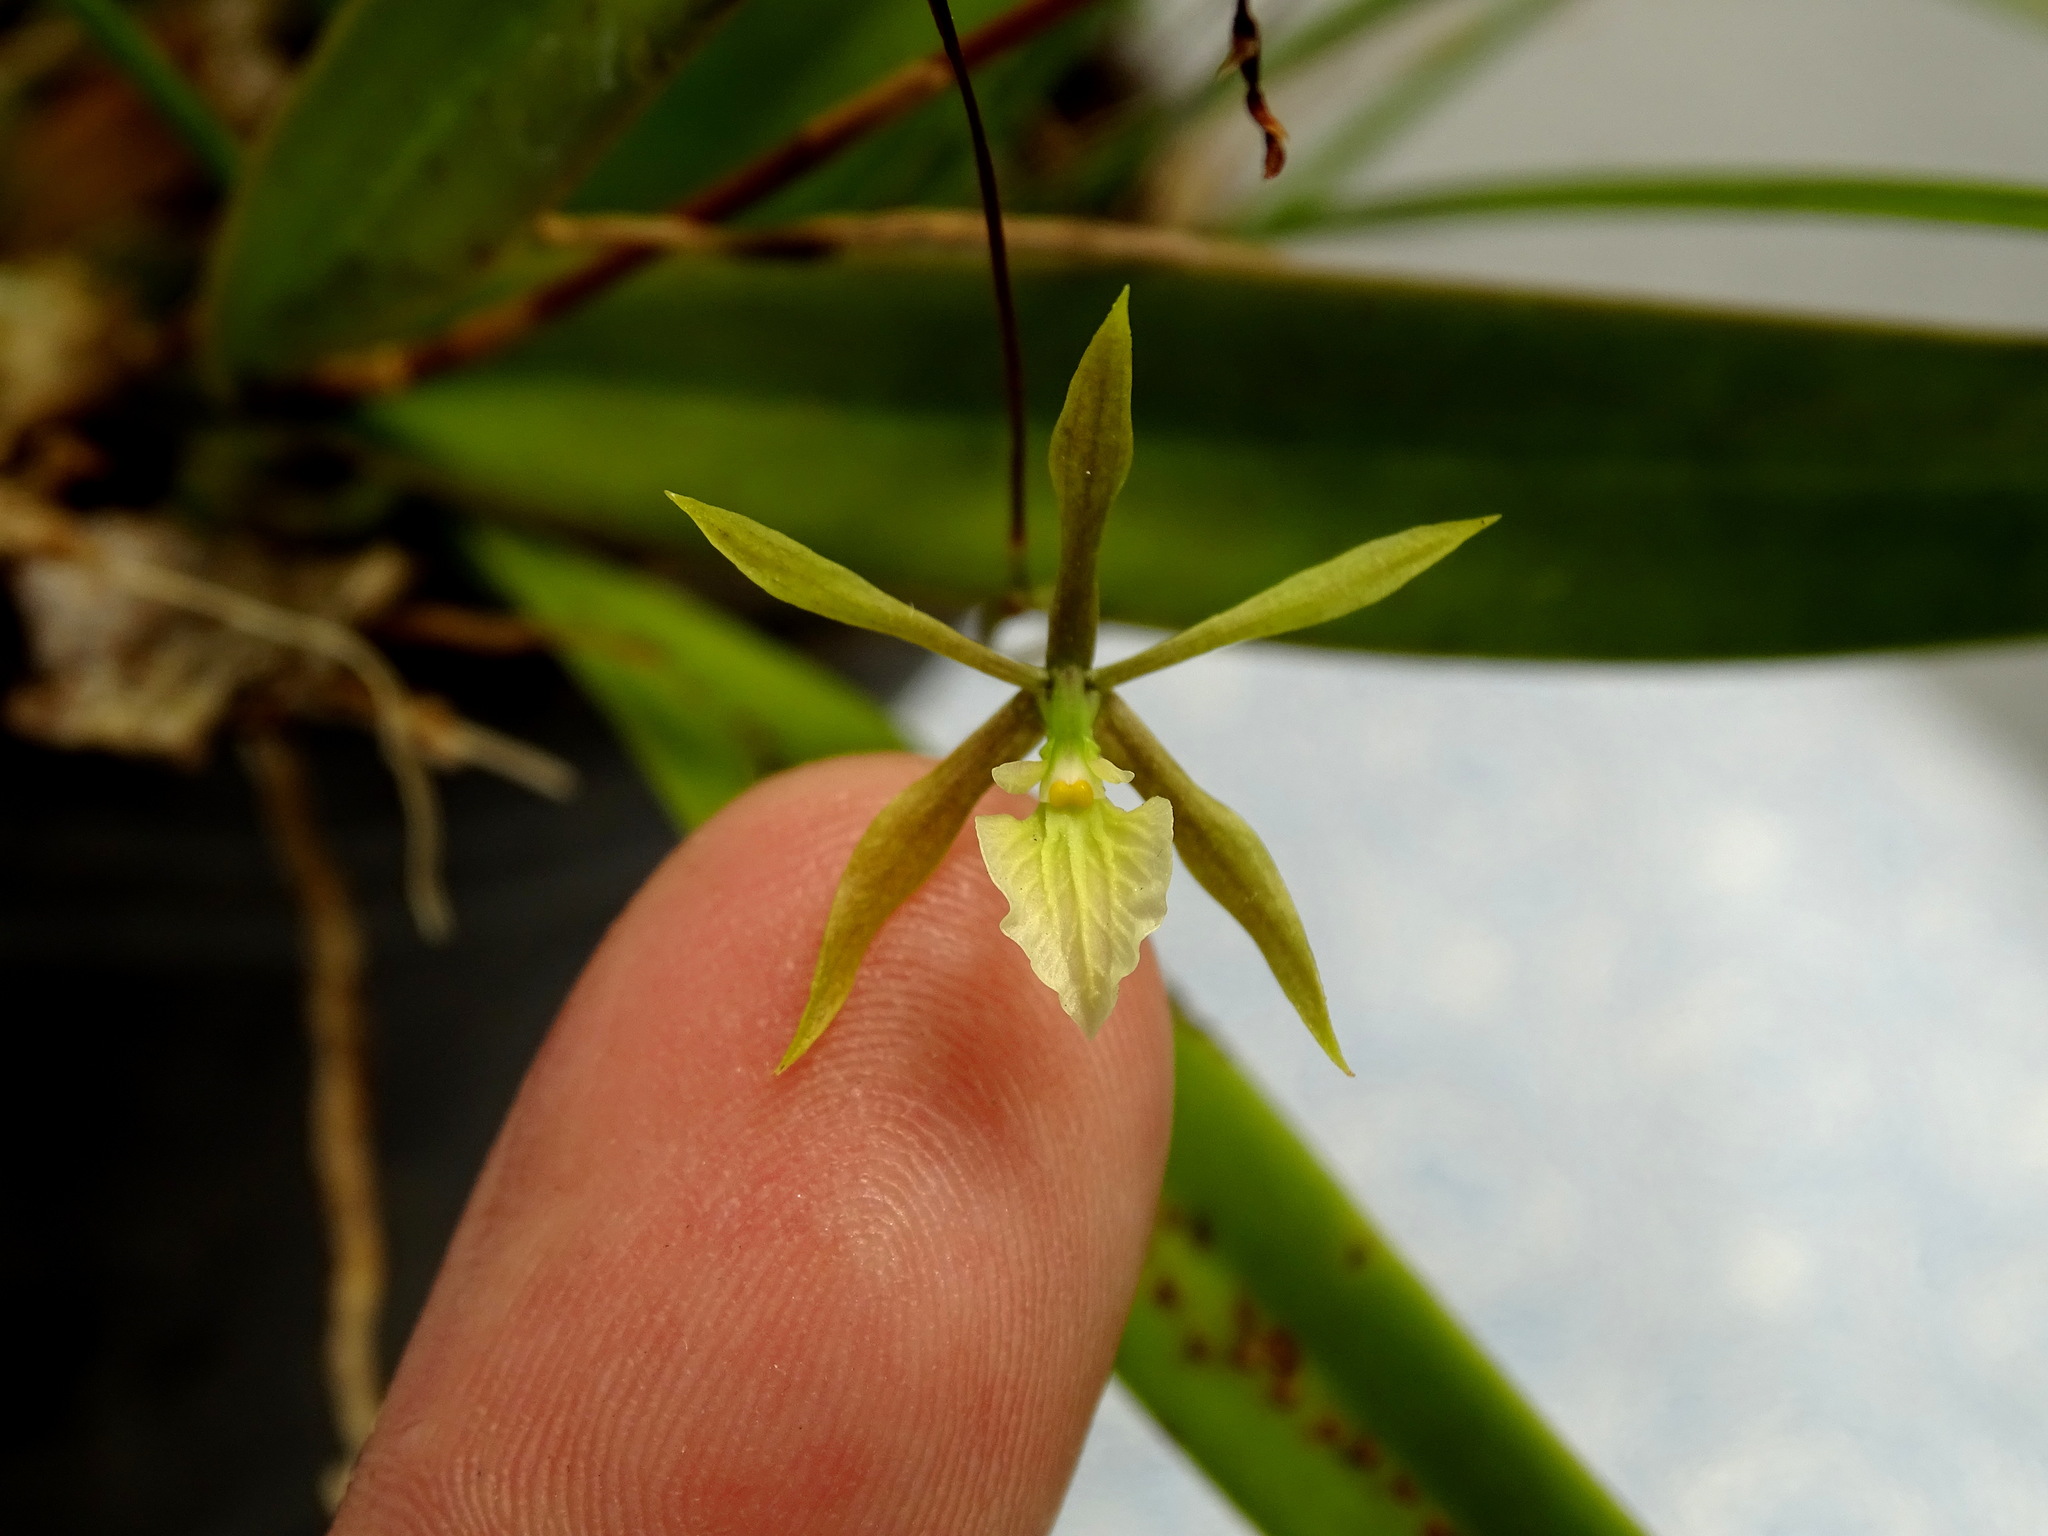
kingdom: Plantae
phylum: Tracheophyta
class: Liliopsida
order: Asparagales
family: Orchidaceae
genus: Encyclia
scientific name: Encyclia nematocaulon
